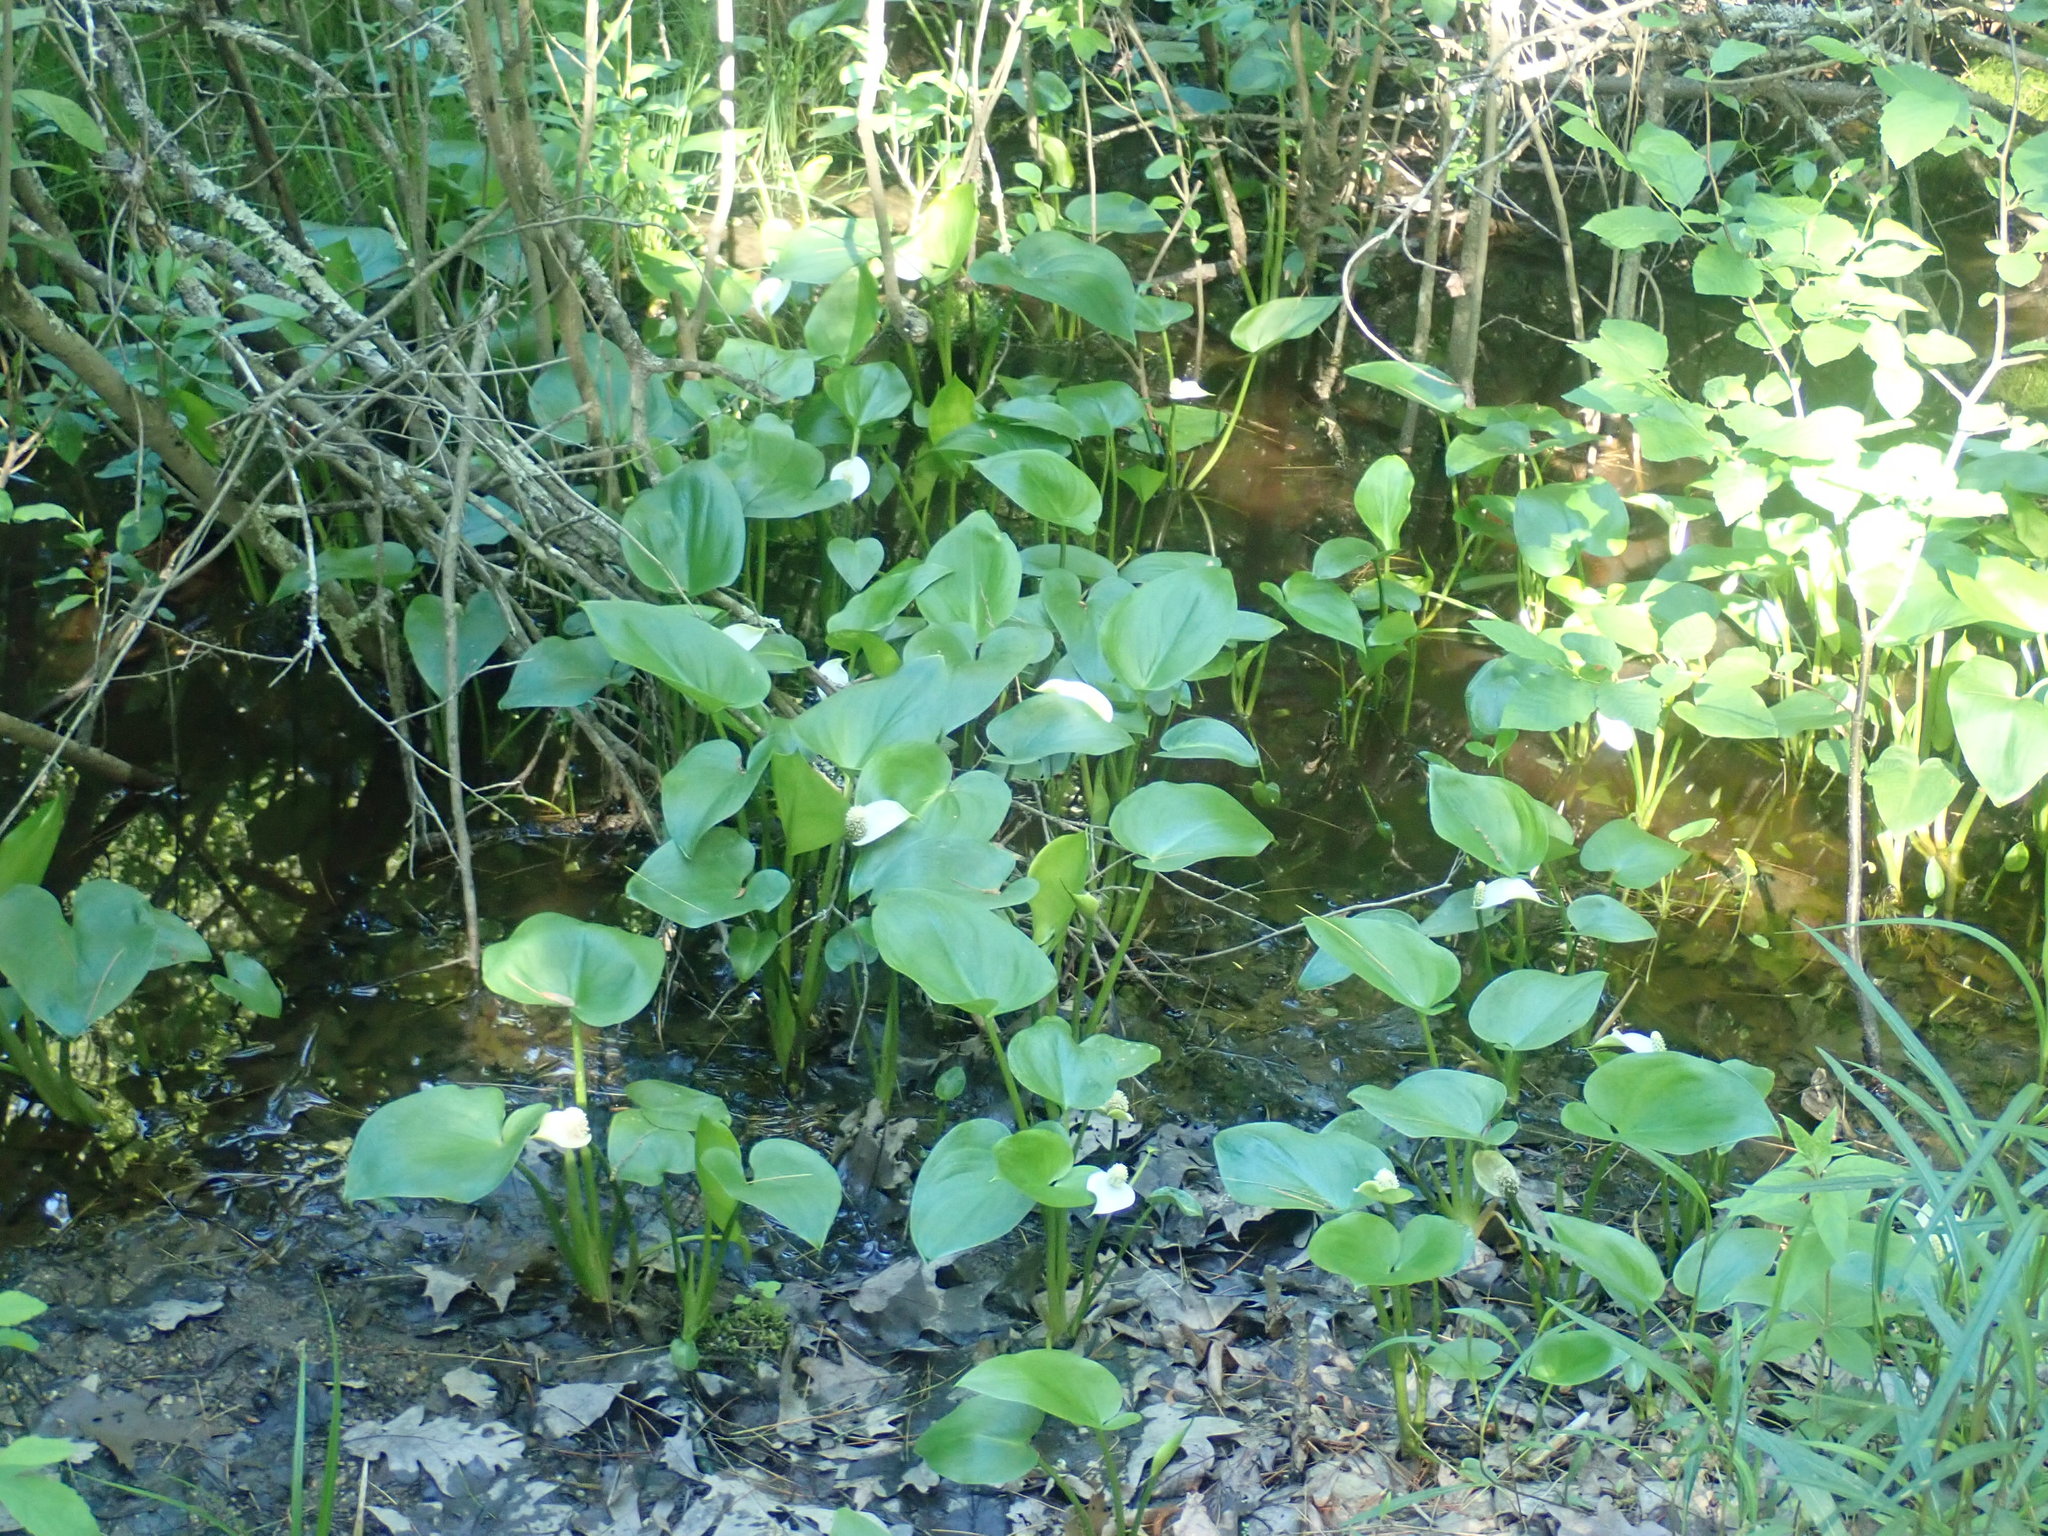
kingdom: Plantae
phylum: Tracheophyta
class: Liliopsida
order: Alismatales
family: Araceae
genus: Calla
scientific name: Calla palustris
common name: Bog arum
